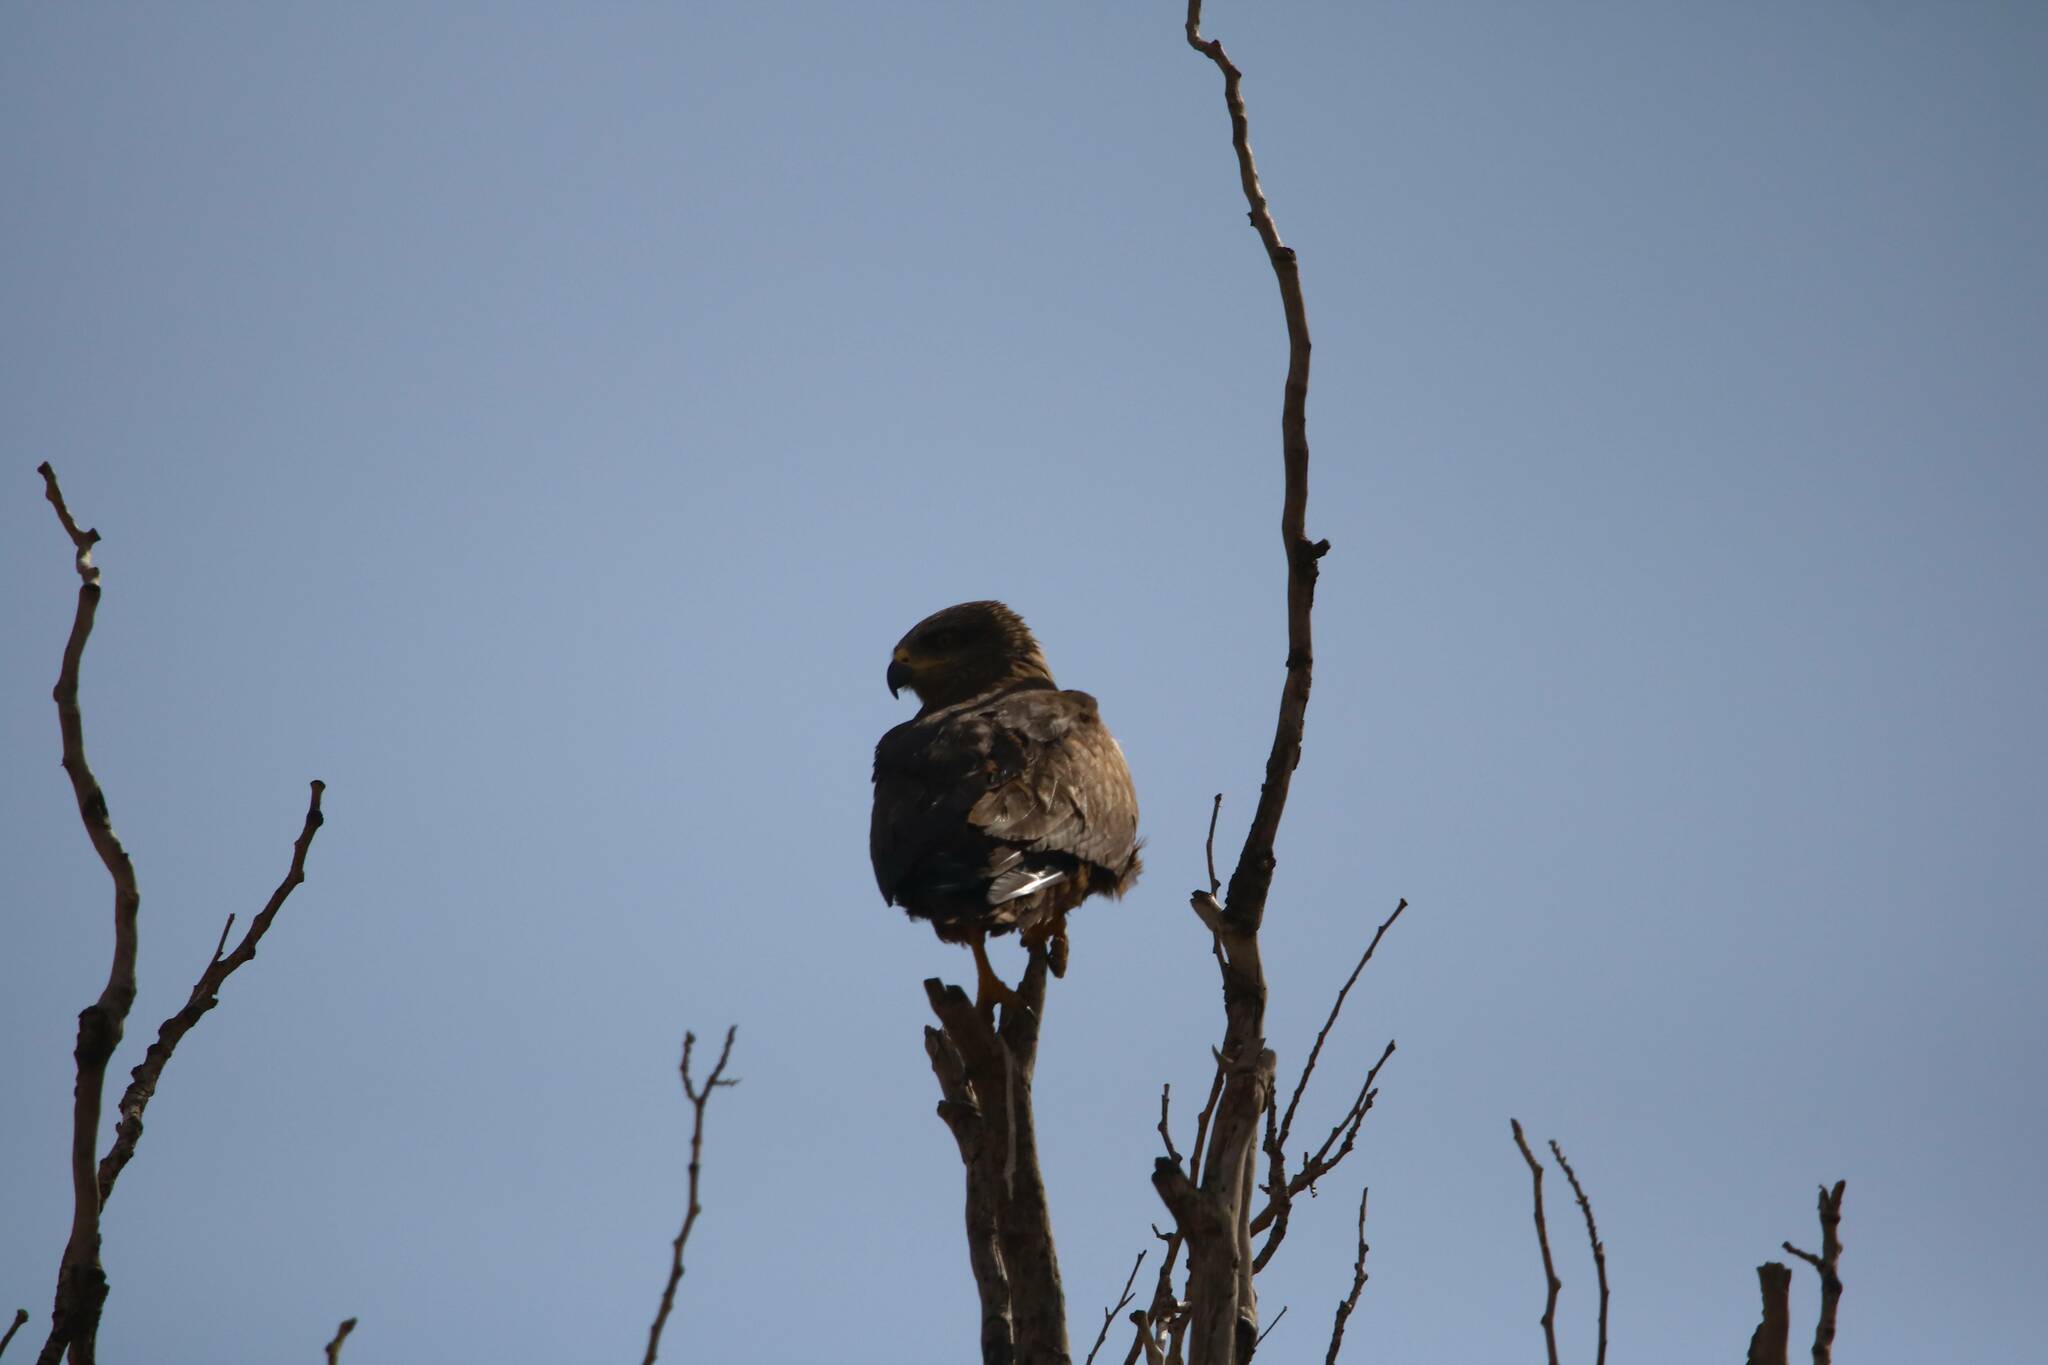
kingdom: Animalia
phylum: Chordata
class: Aves
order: Accipitriformes
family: Accipitridae
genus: Milvus
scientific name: Milvus migrans
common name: Black kite
